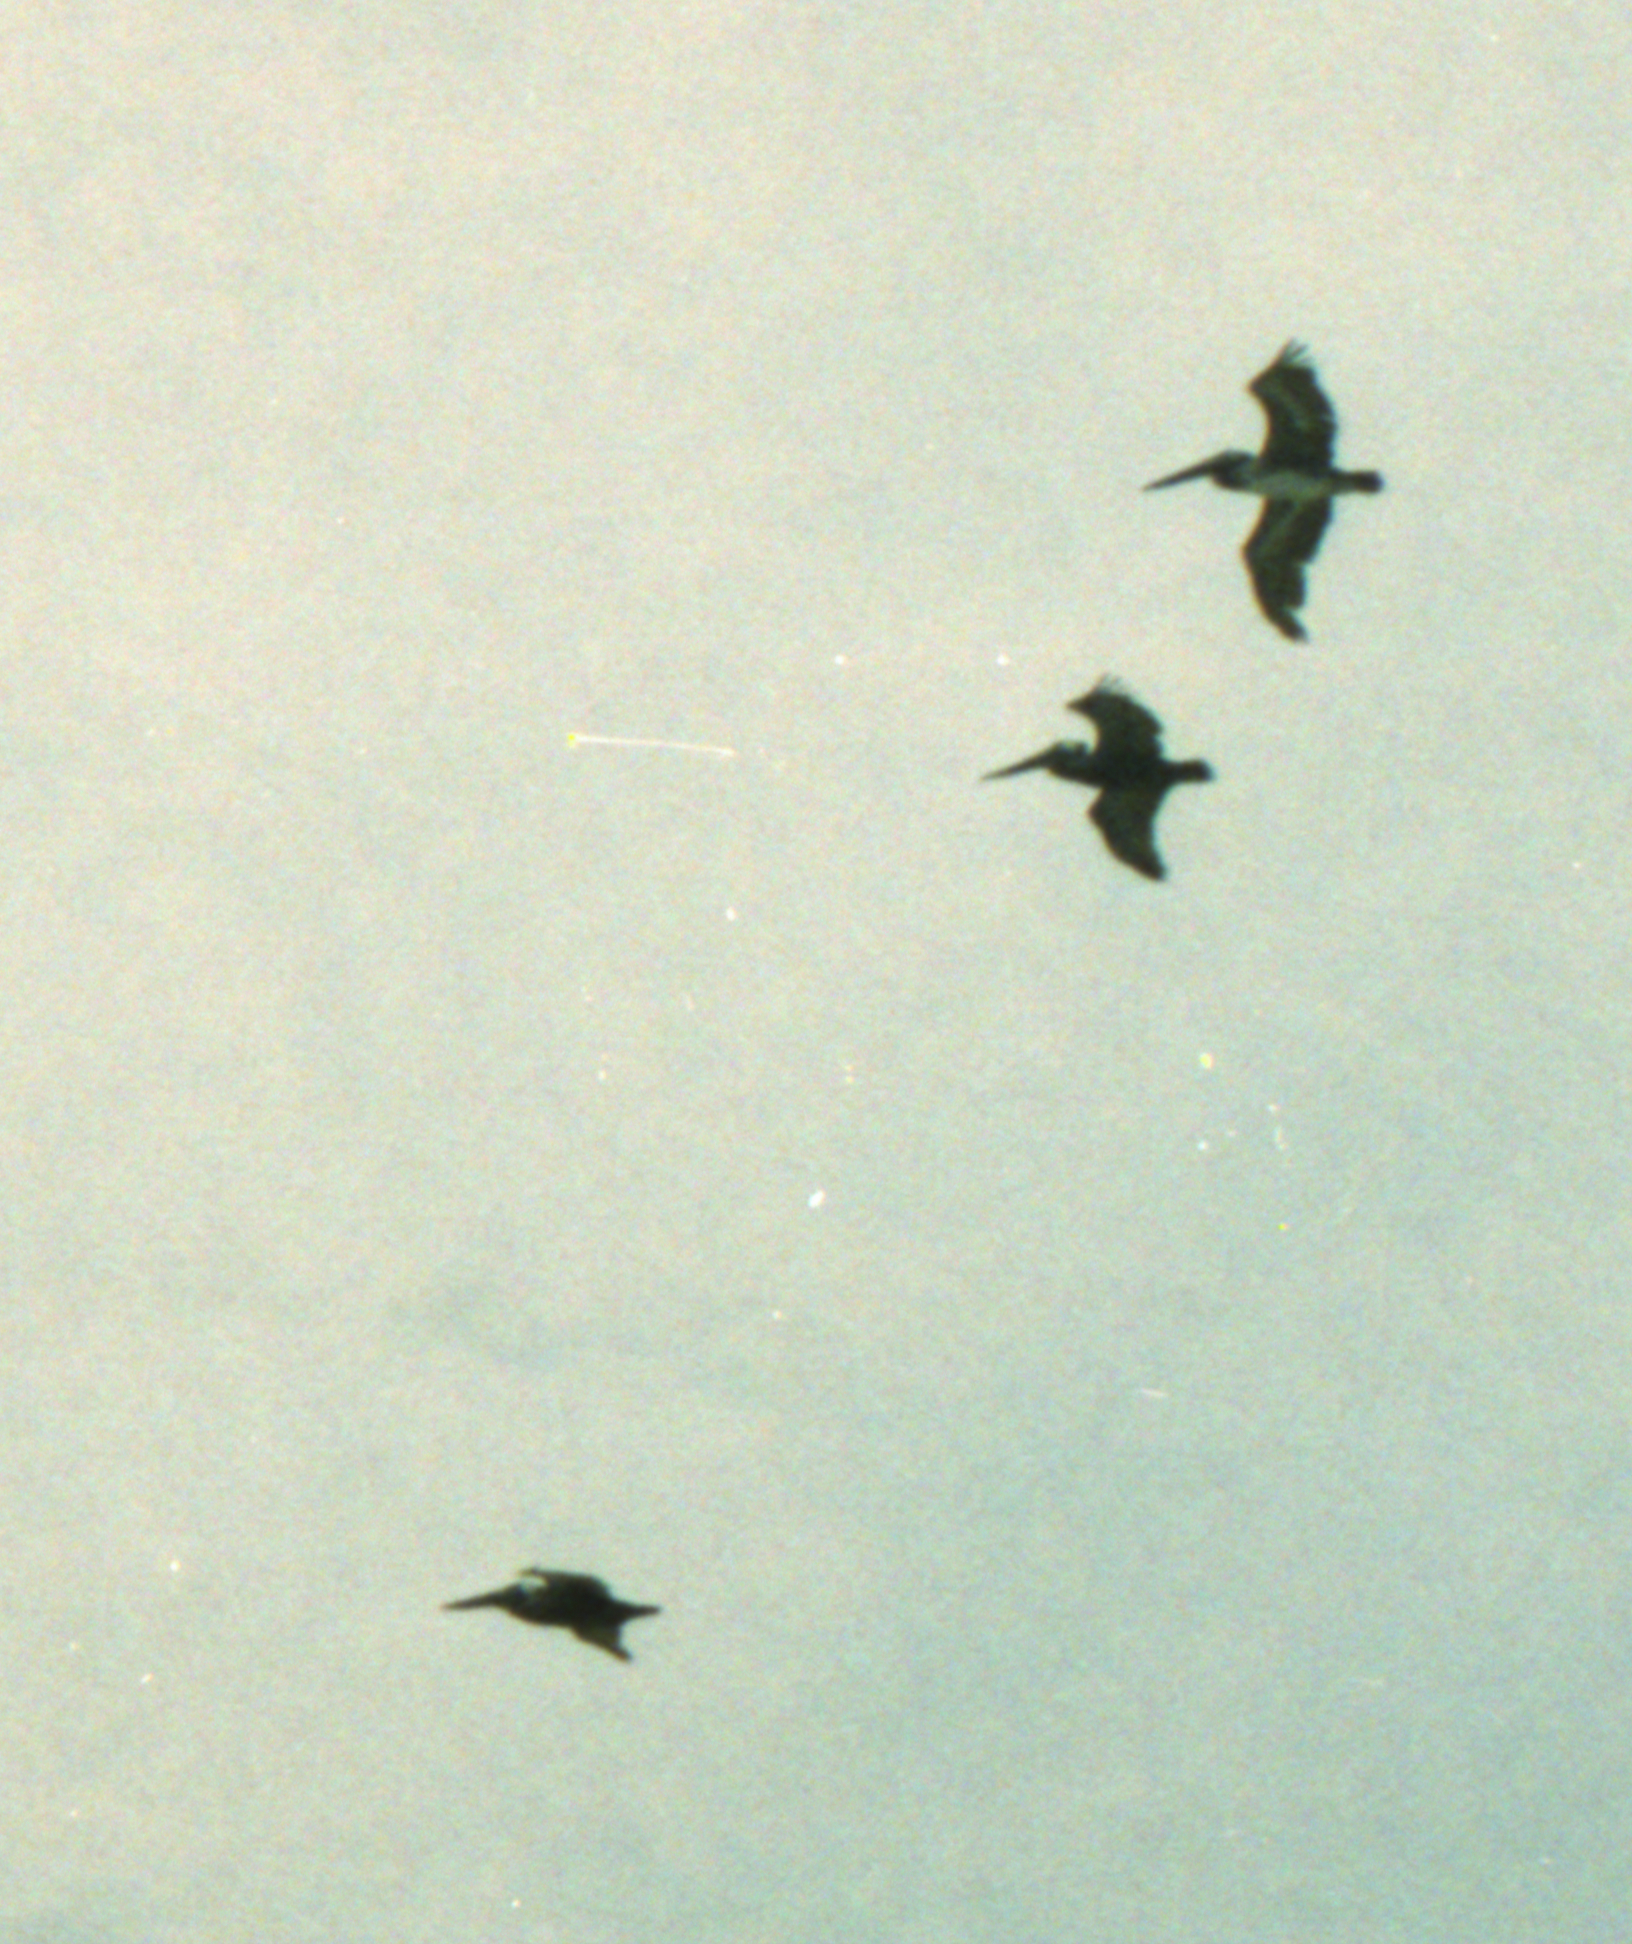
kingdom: Animalia
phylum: Chordata
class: Aves
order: Pelecaniformes
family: Pelecanidae
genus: Pelecanus
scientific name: Pelecanus occidentalis
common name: Brown pelican
